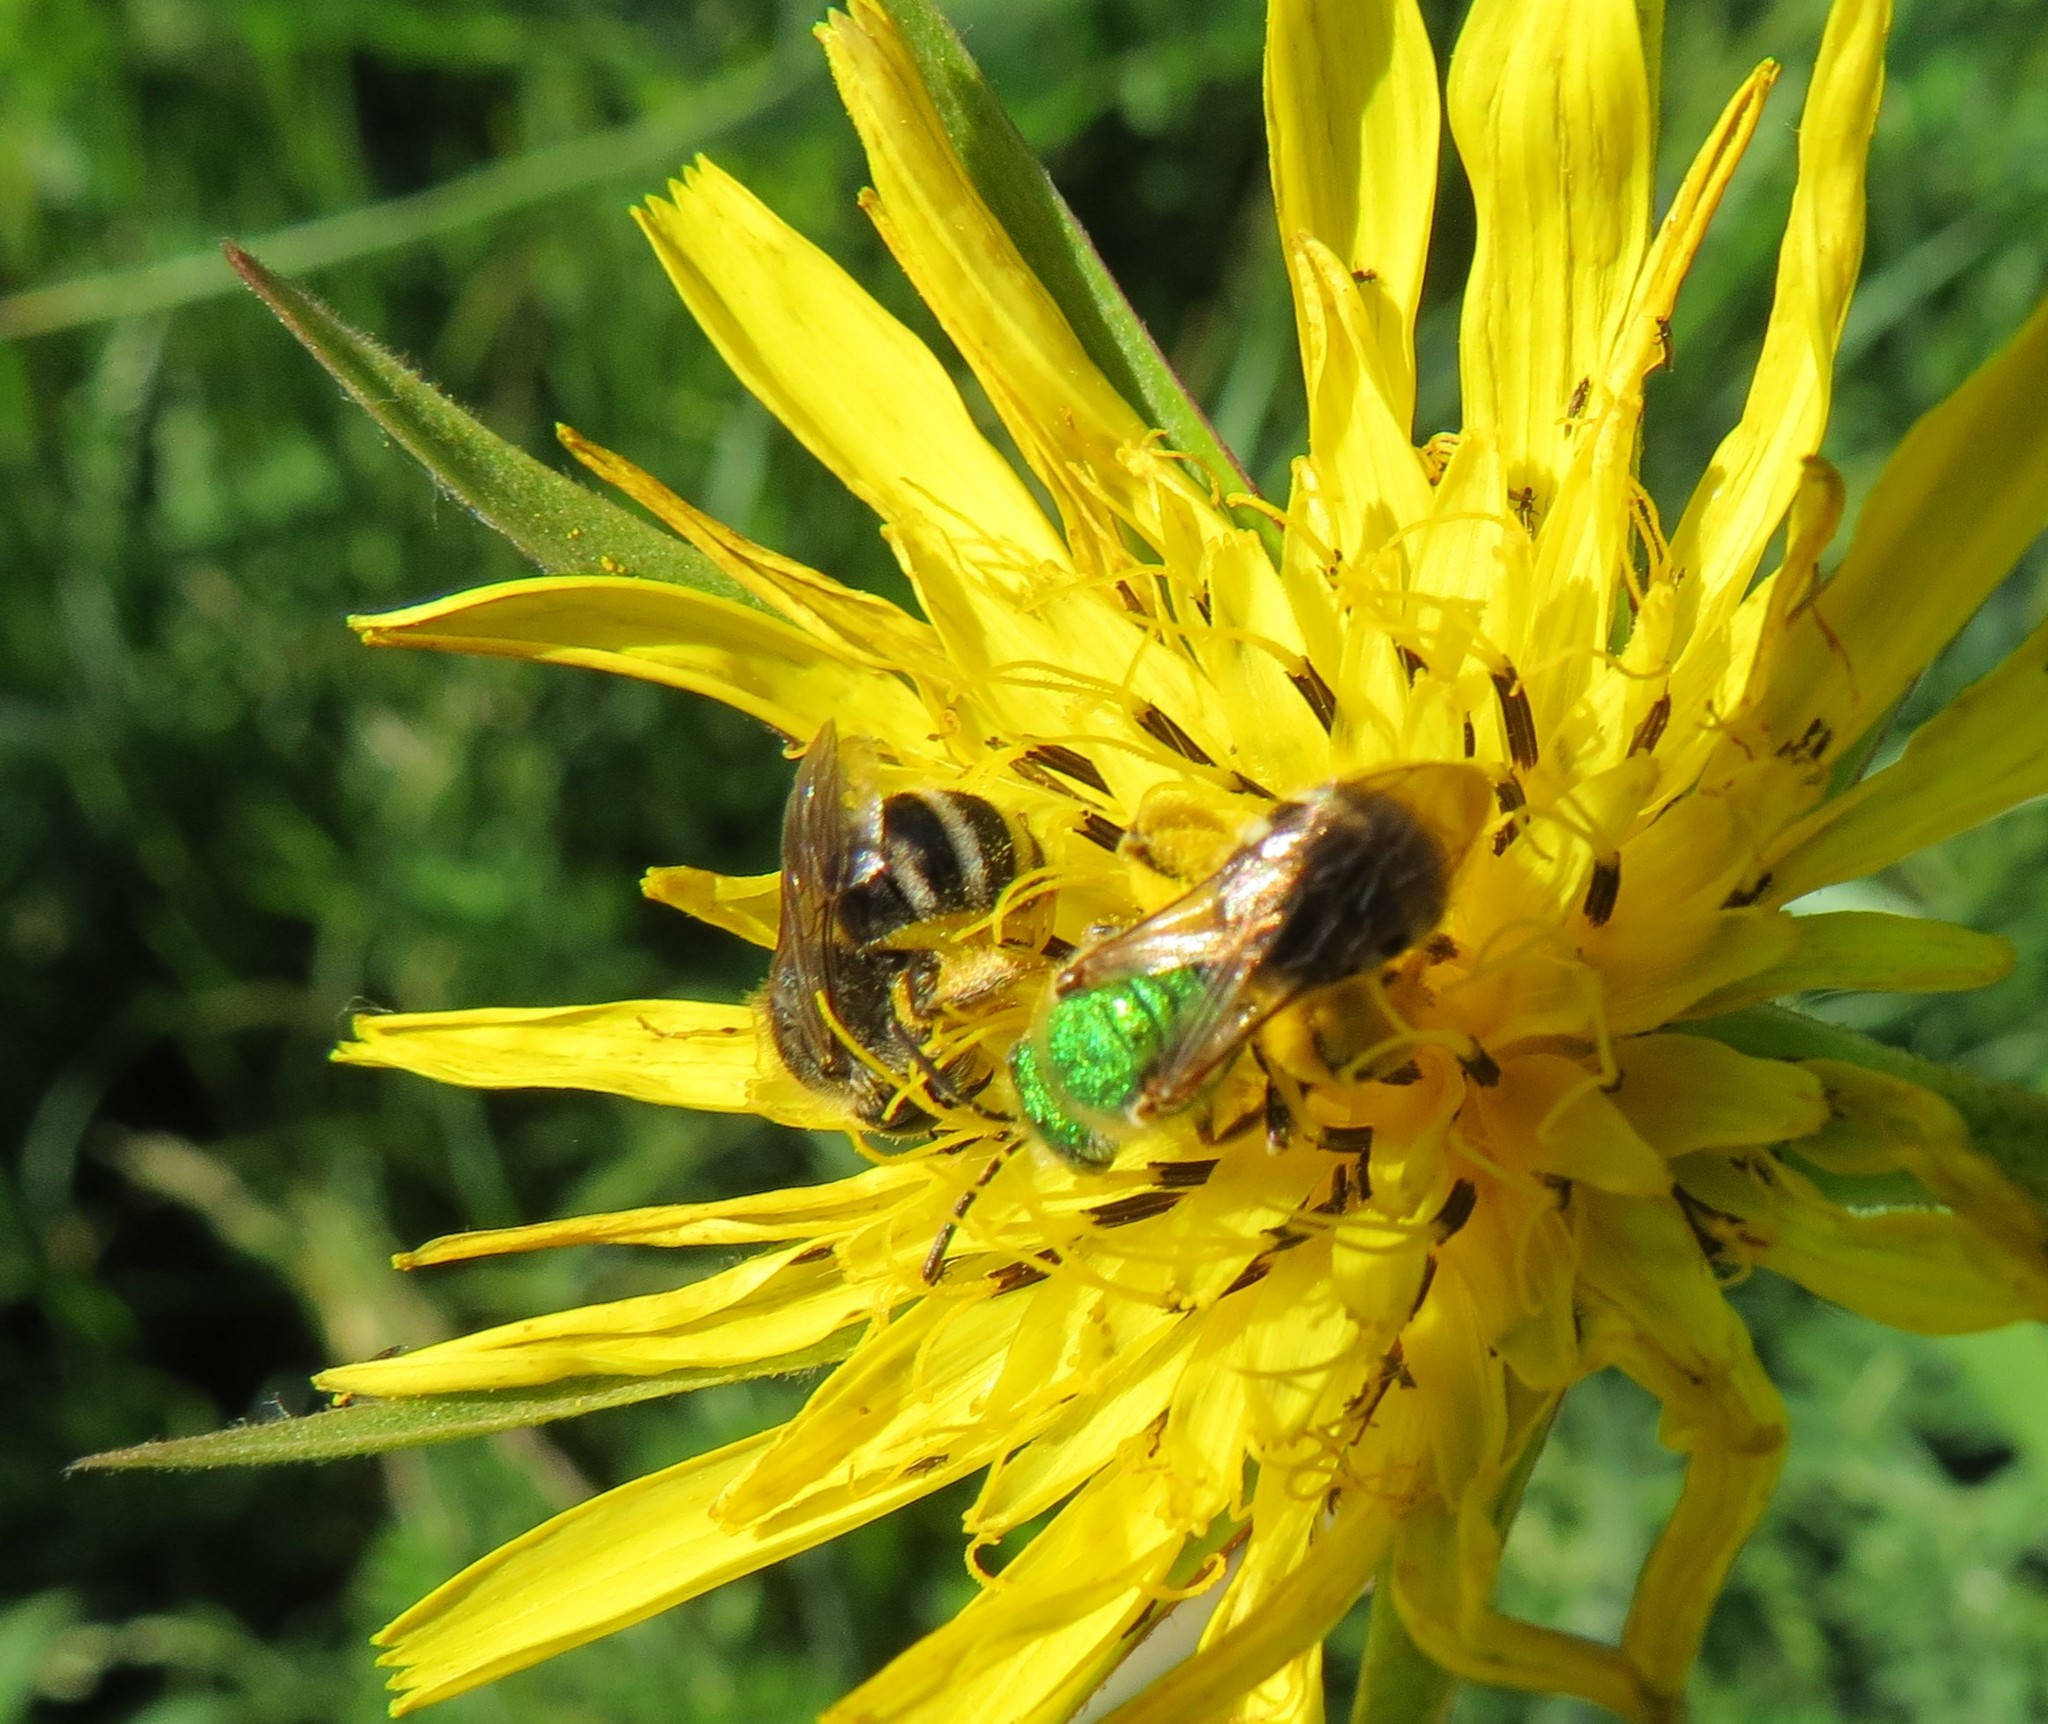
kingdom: Animalia
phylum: Arthropoda
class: Insecta
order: Hymenoptera
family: Halictidae
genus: Agapostemon
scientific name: Agapostemon virescens
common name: Bicolored striped sweat bee
